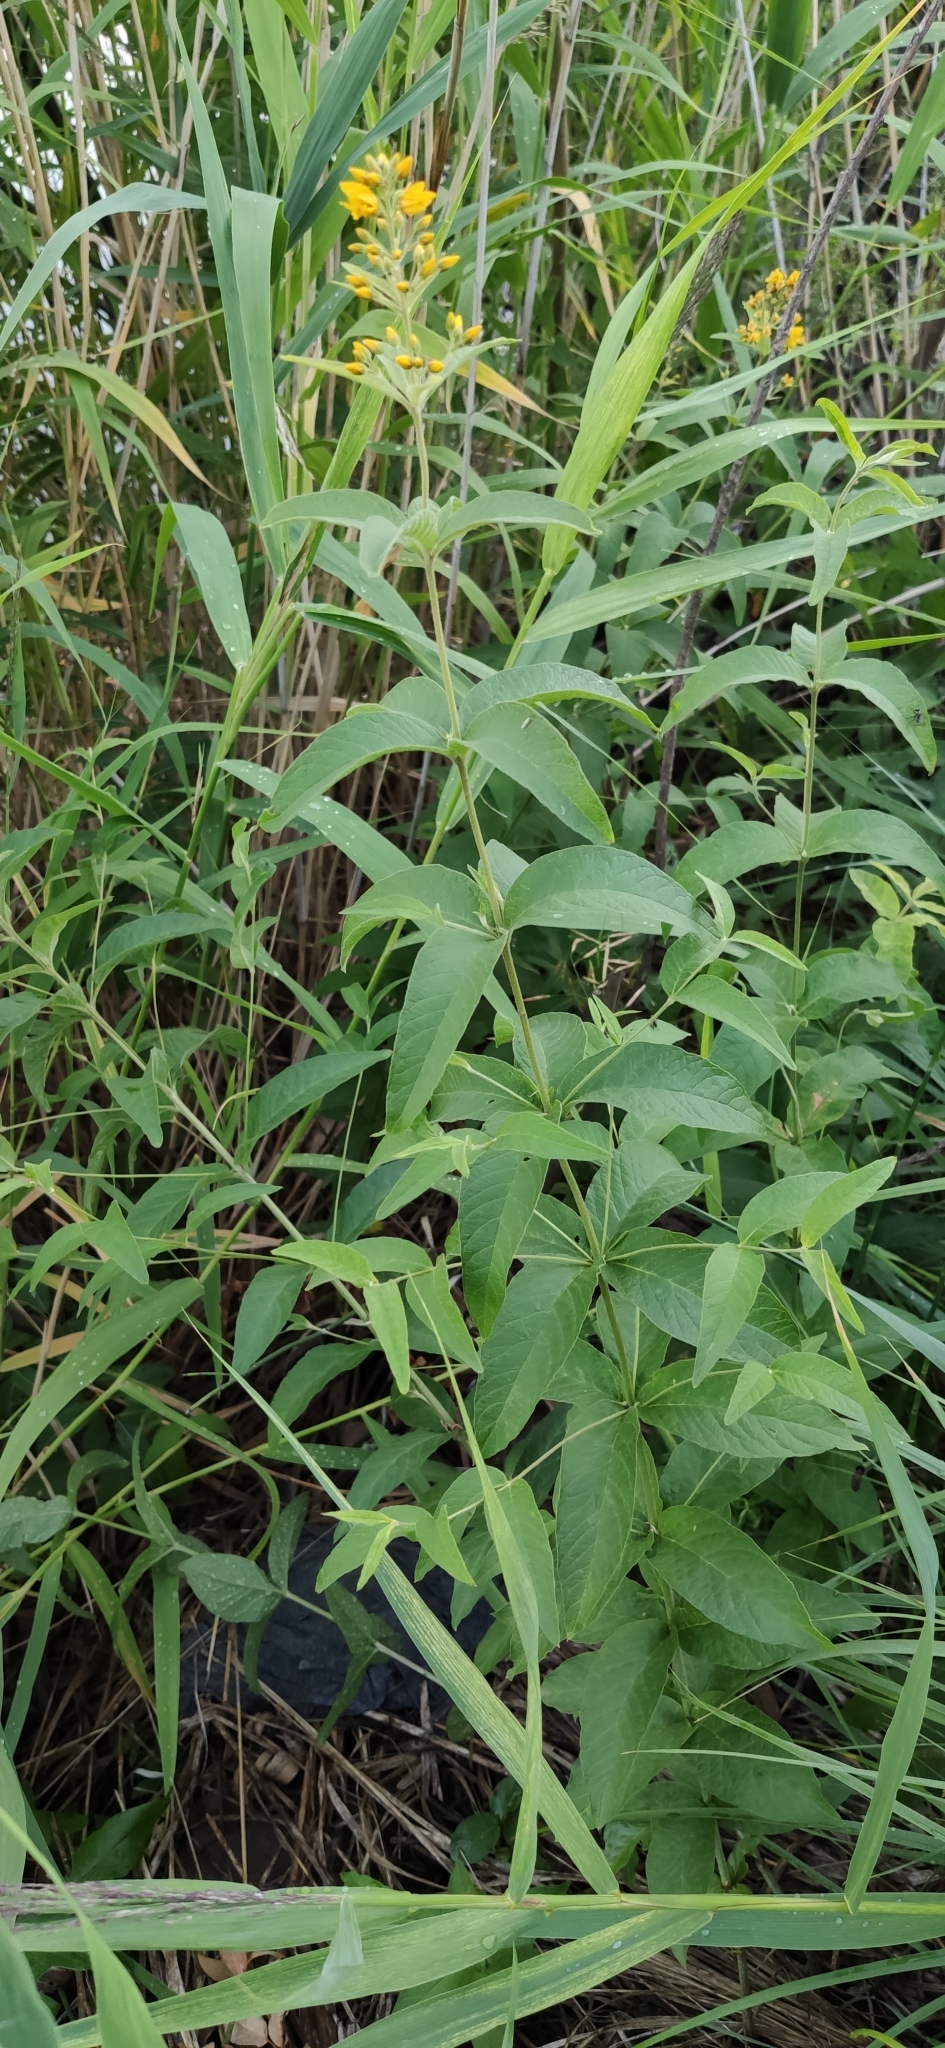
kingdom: Plantae
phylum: Tracheophyta
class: Magnoliopsida
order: Ericales
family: Primulaceae
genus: Lysimachia
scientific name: Lysimachia vulgaris
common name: Yellow loosestrife
